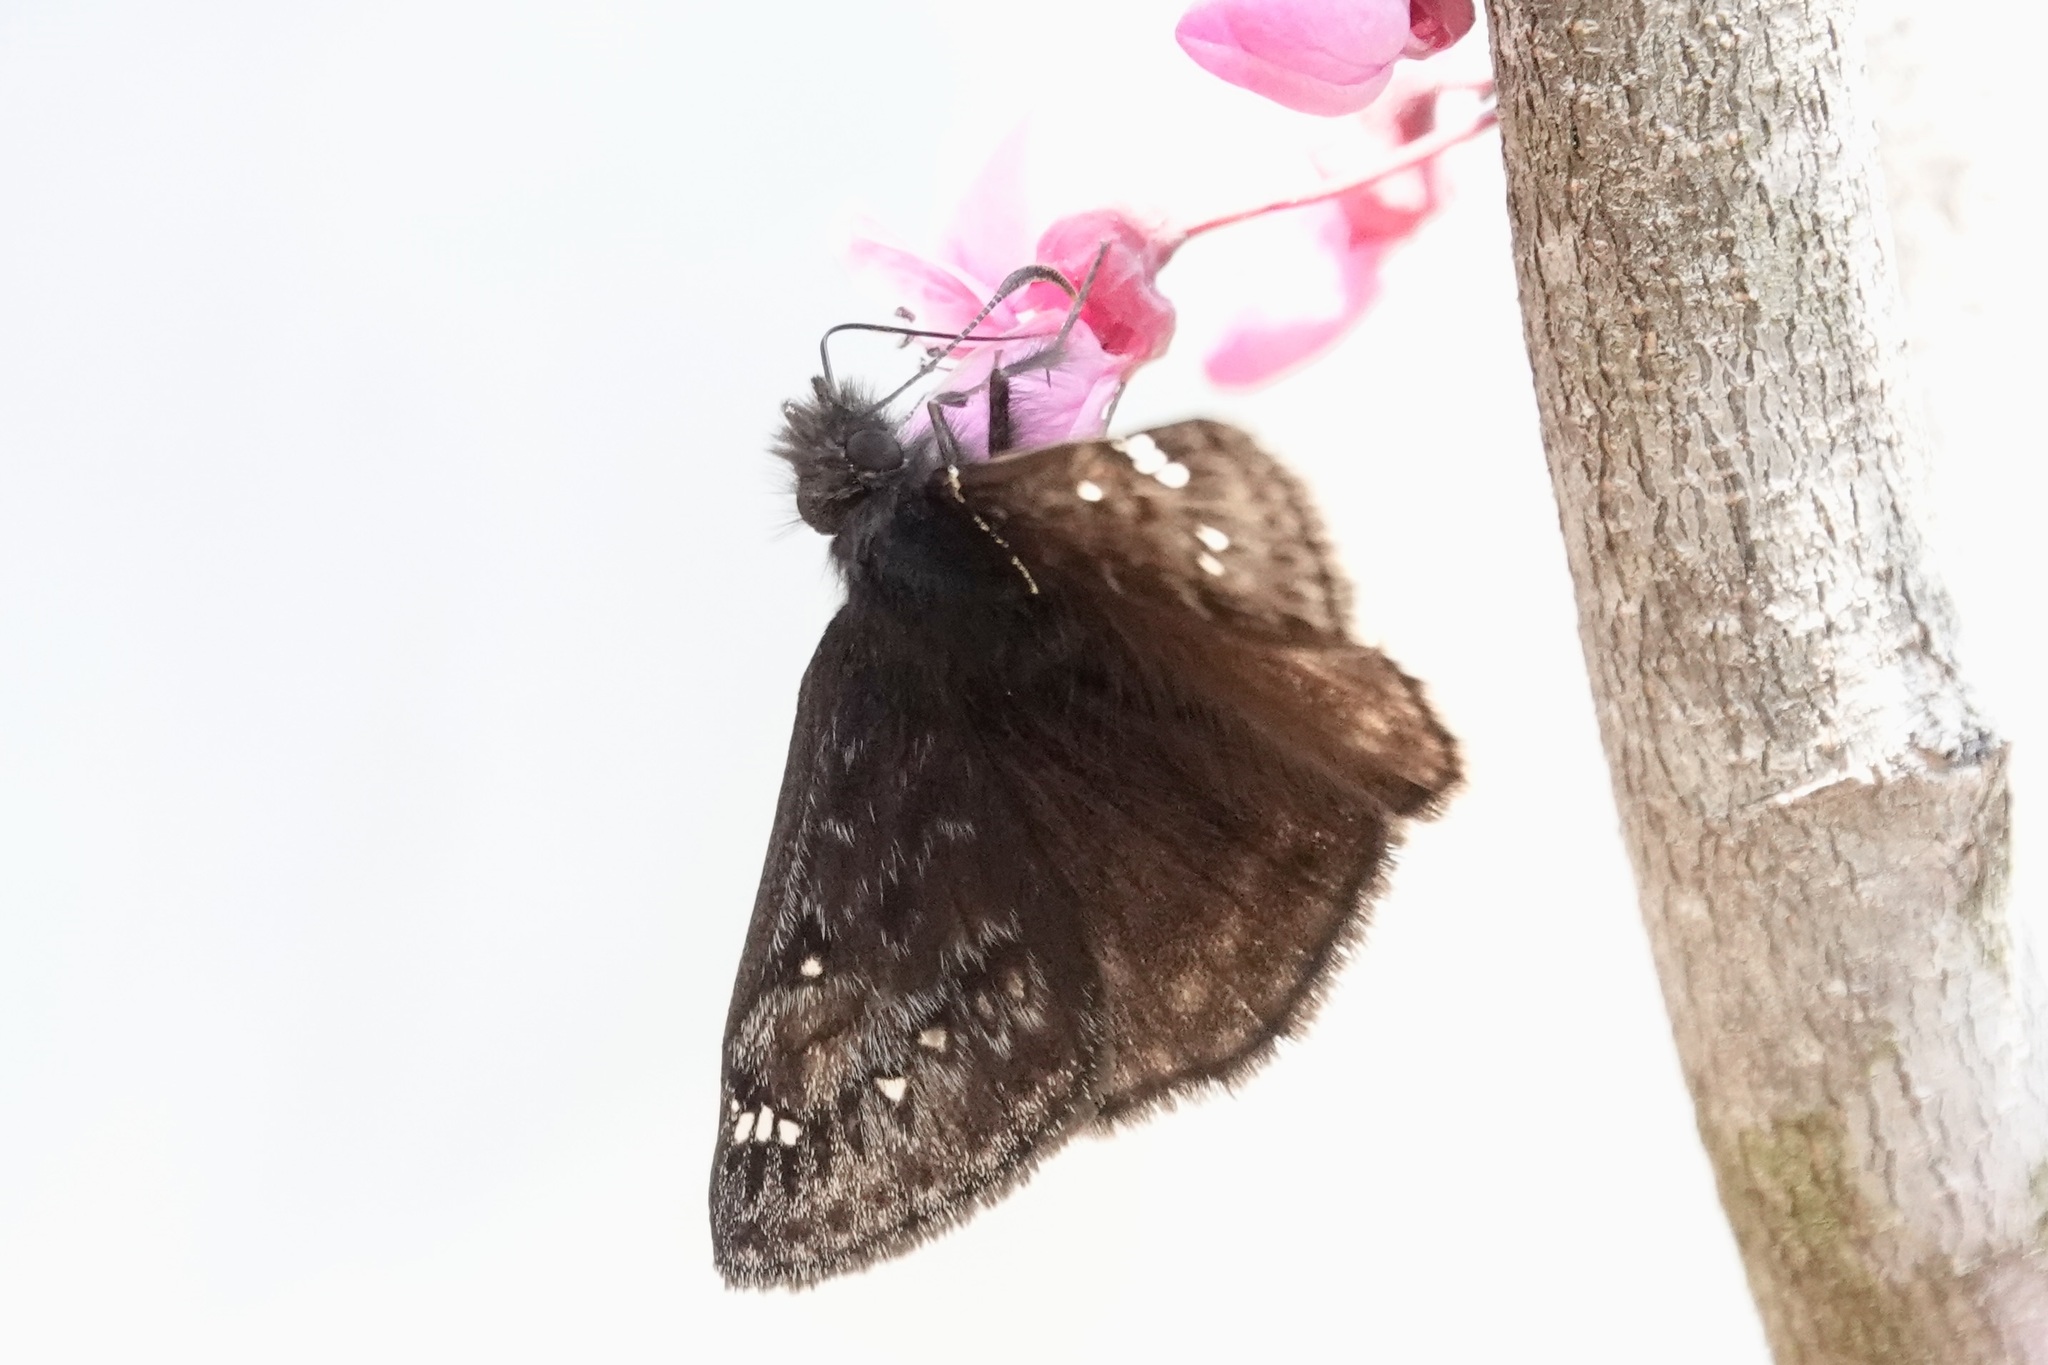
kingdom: Animalia
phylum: Arthropoda
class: Insecta
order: Lepidoptera
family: Hesperiidae
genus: Erynnis
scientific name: Erynnis juvenalis
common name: Juvenal's duskywing
